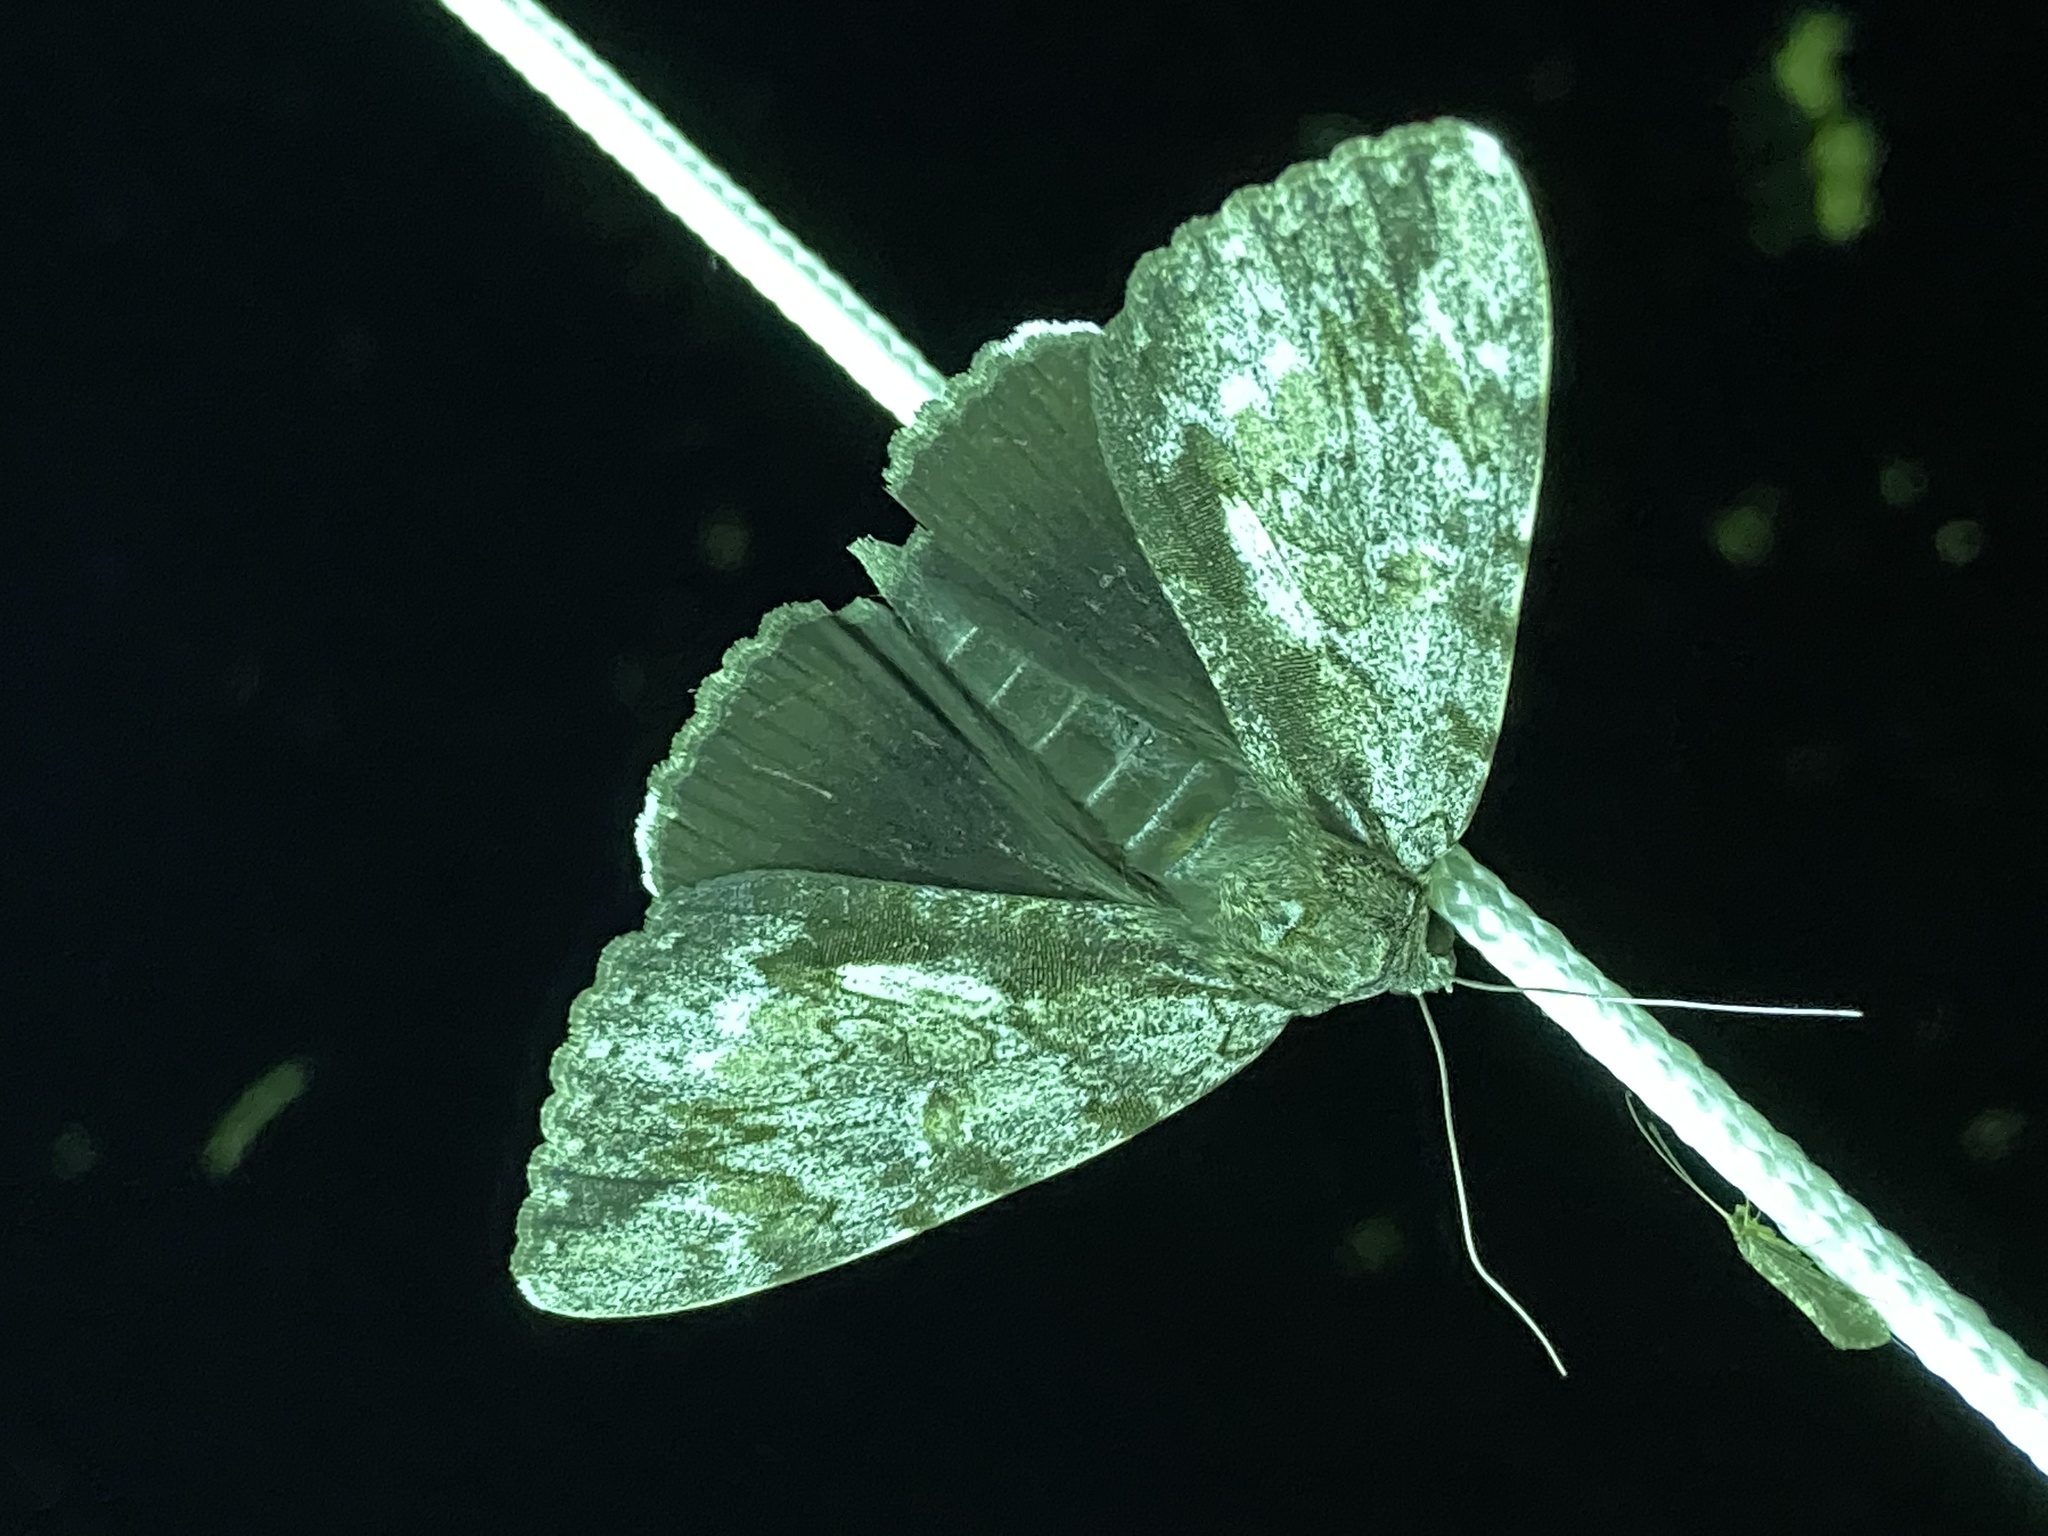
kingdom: Animalia
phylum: Arthropoda
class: Insecta
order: Lepidoptera
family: Erebidae
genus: Catocala
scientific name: Catocala insolabilis
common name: Inconsolable underwing
